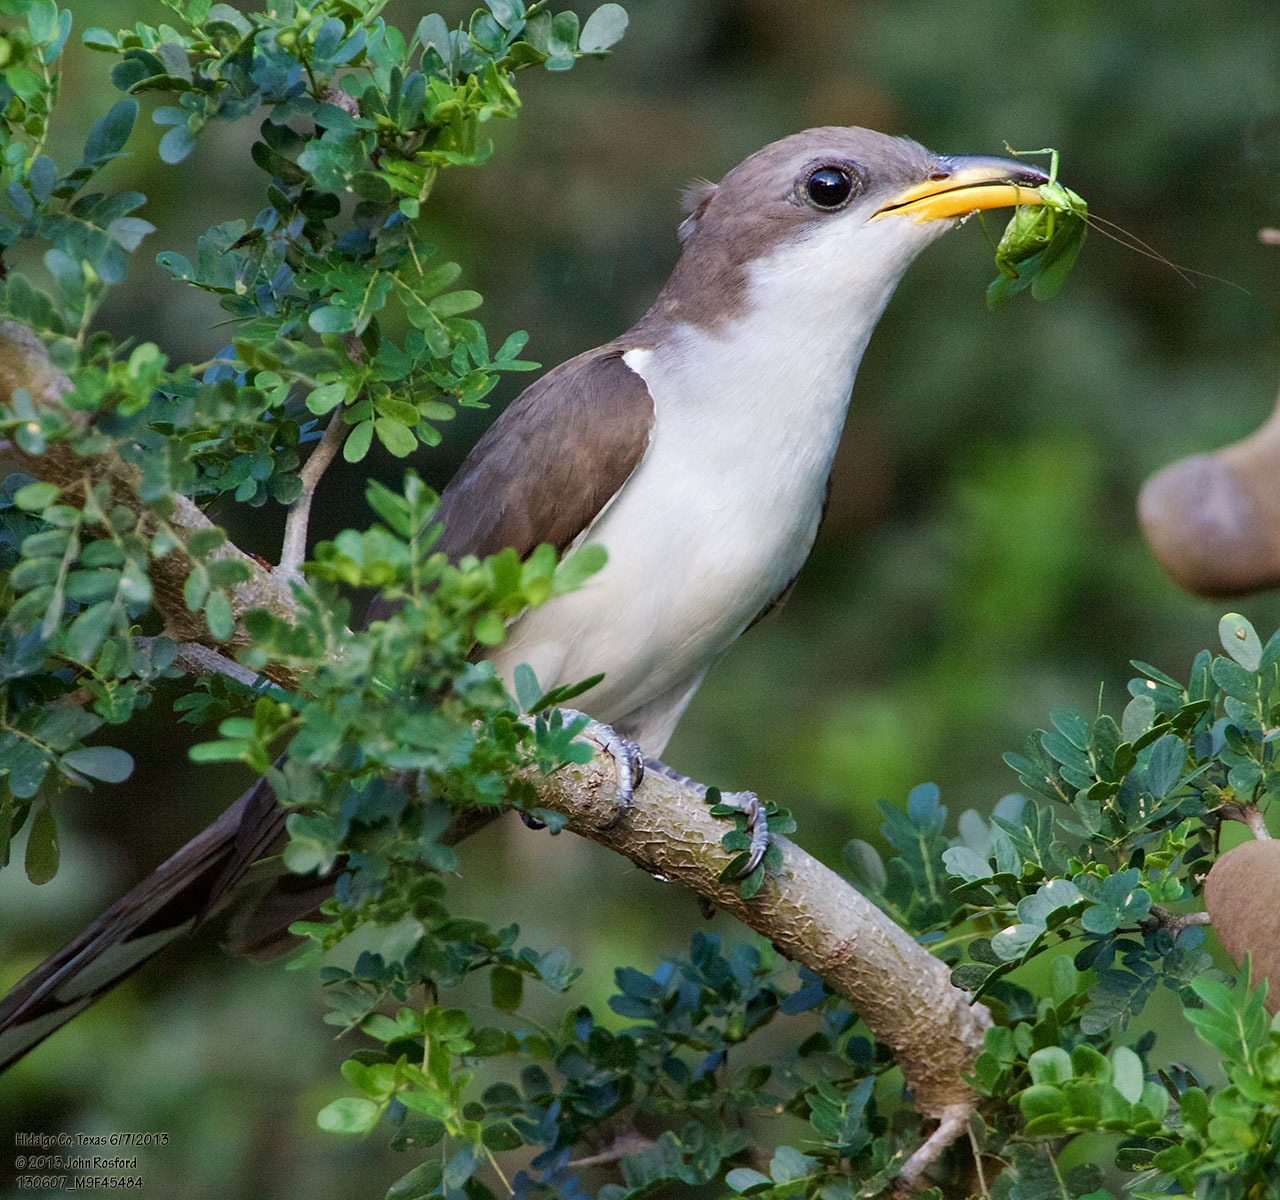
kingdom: Animalia
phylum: Chordata
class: Aves
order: Cuculiformes
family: Cuculidae
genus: Coccyzus
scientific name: Coccyzus americanus
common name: Yellow-billed cuckoo
